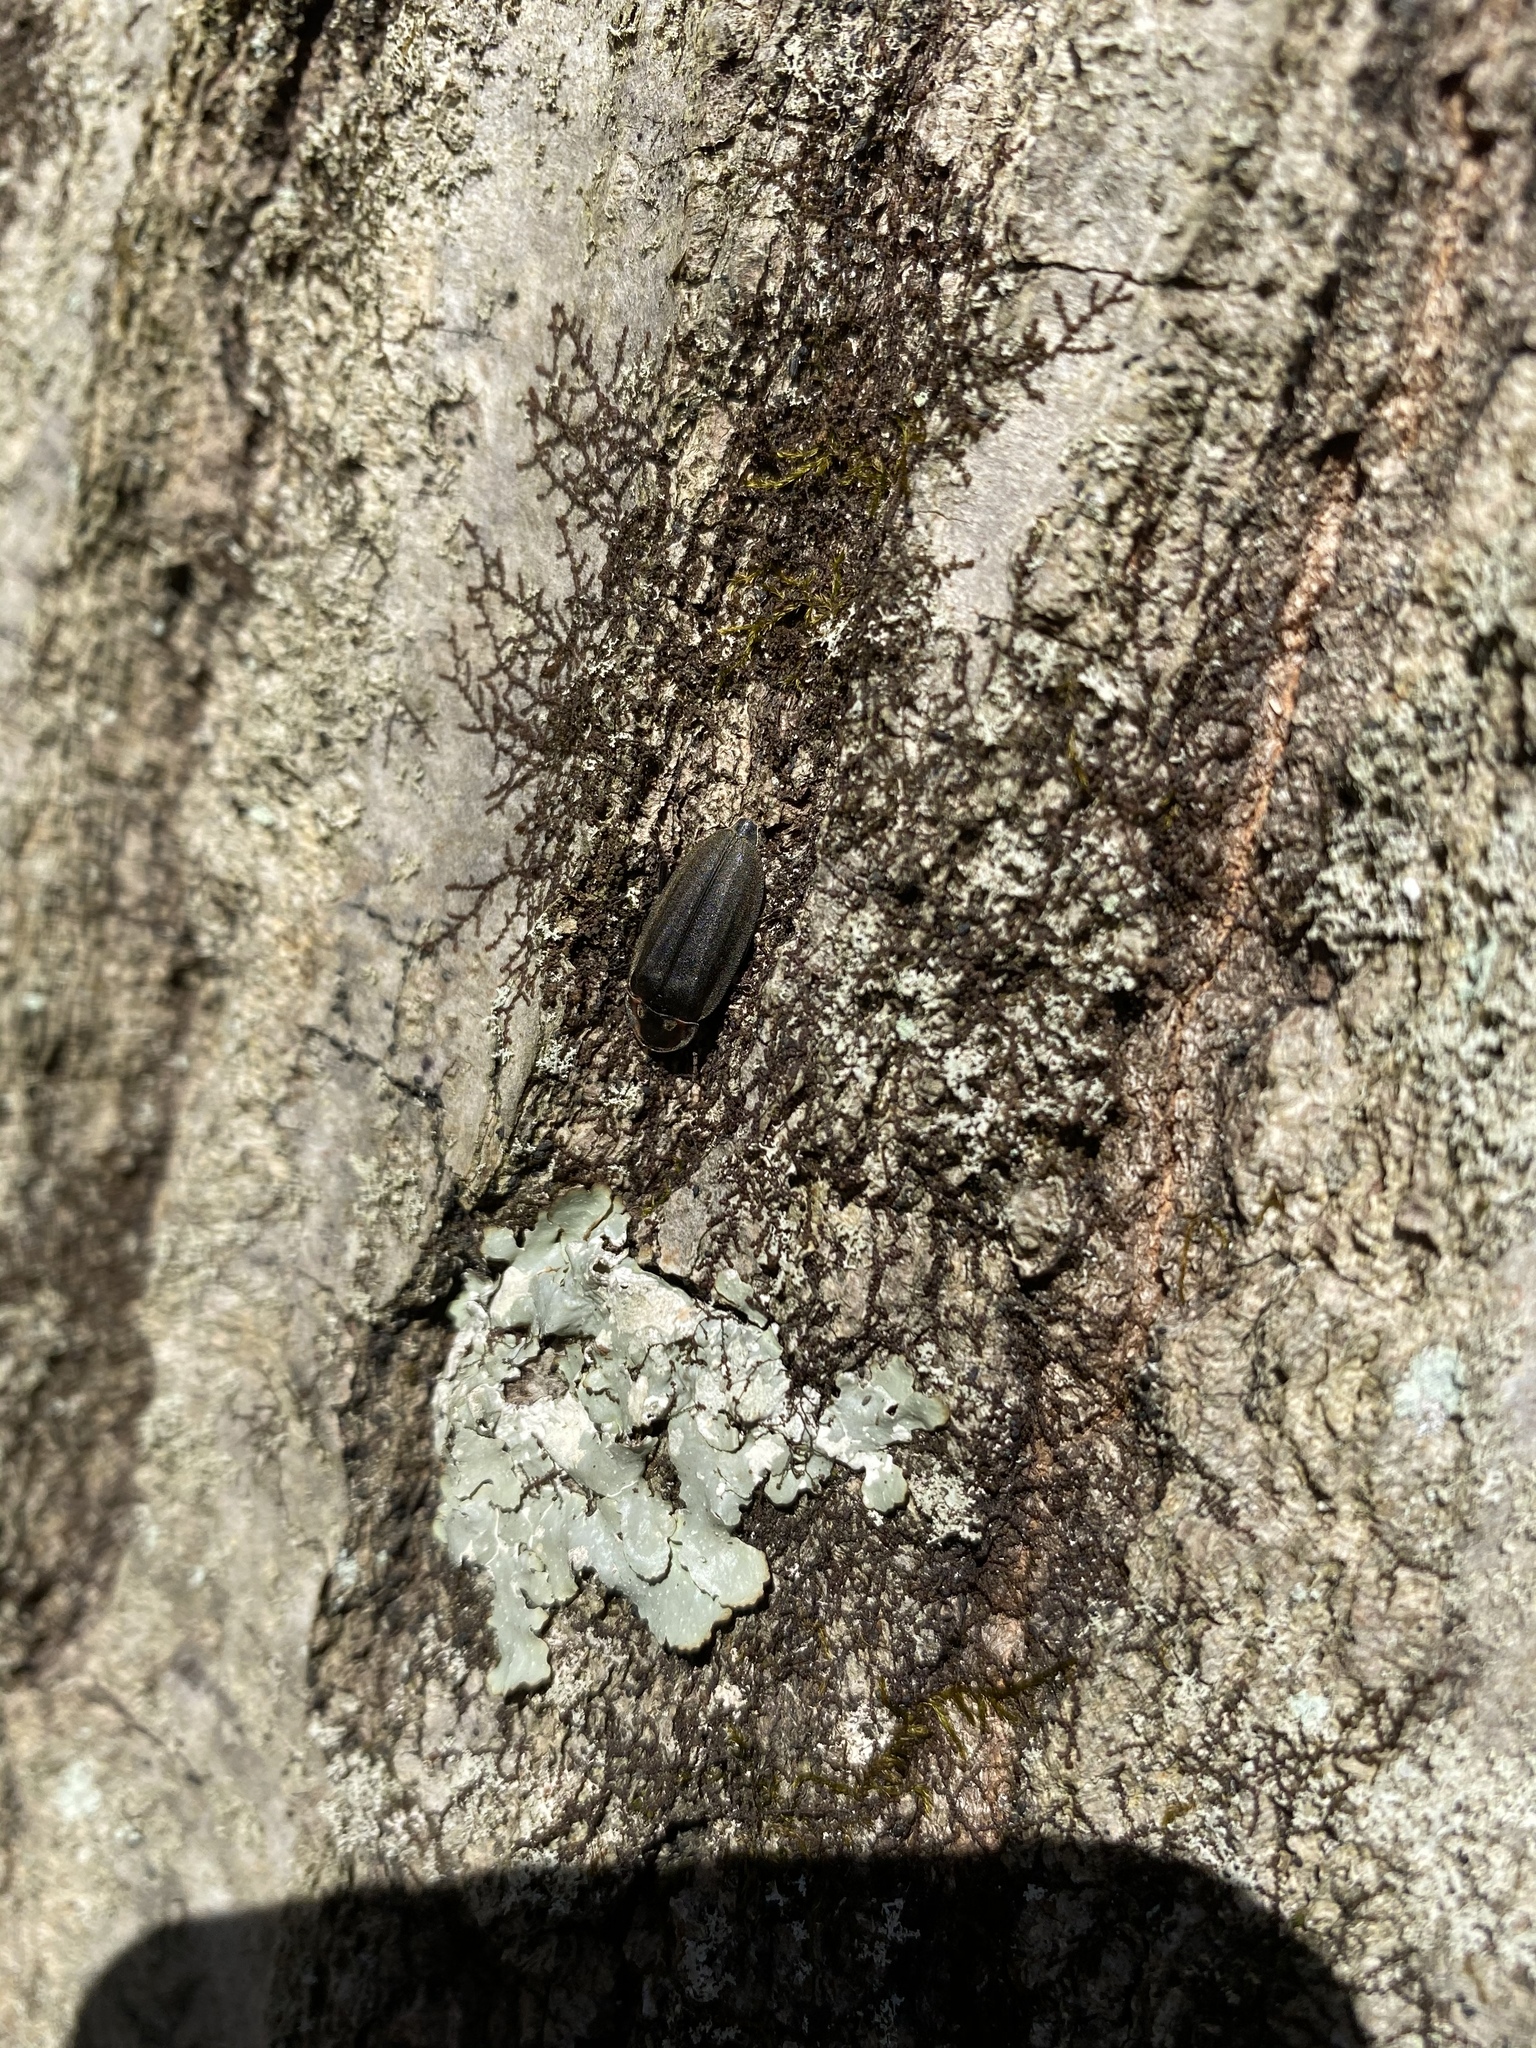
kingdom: Animalia
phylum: Arthropoda
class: Insecta
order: Coleoptera
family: Lampyridae
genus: Photinus
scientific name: Photinus corrusca
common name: Winter firefly
